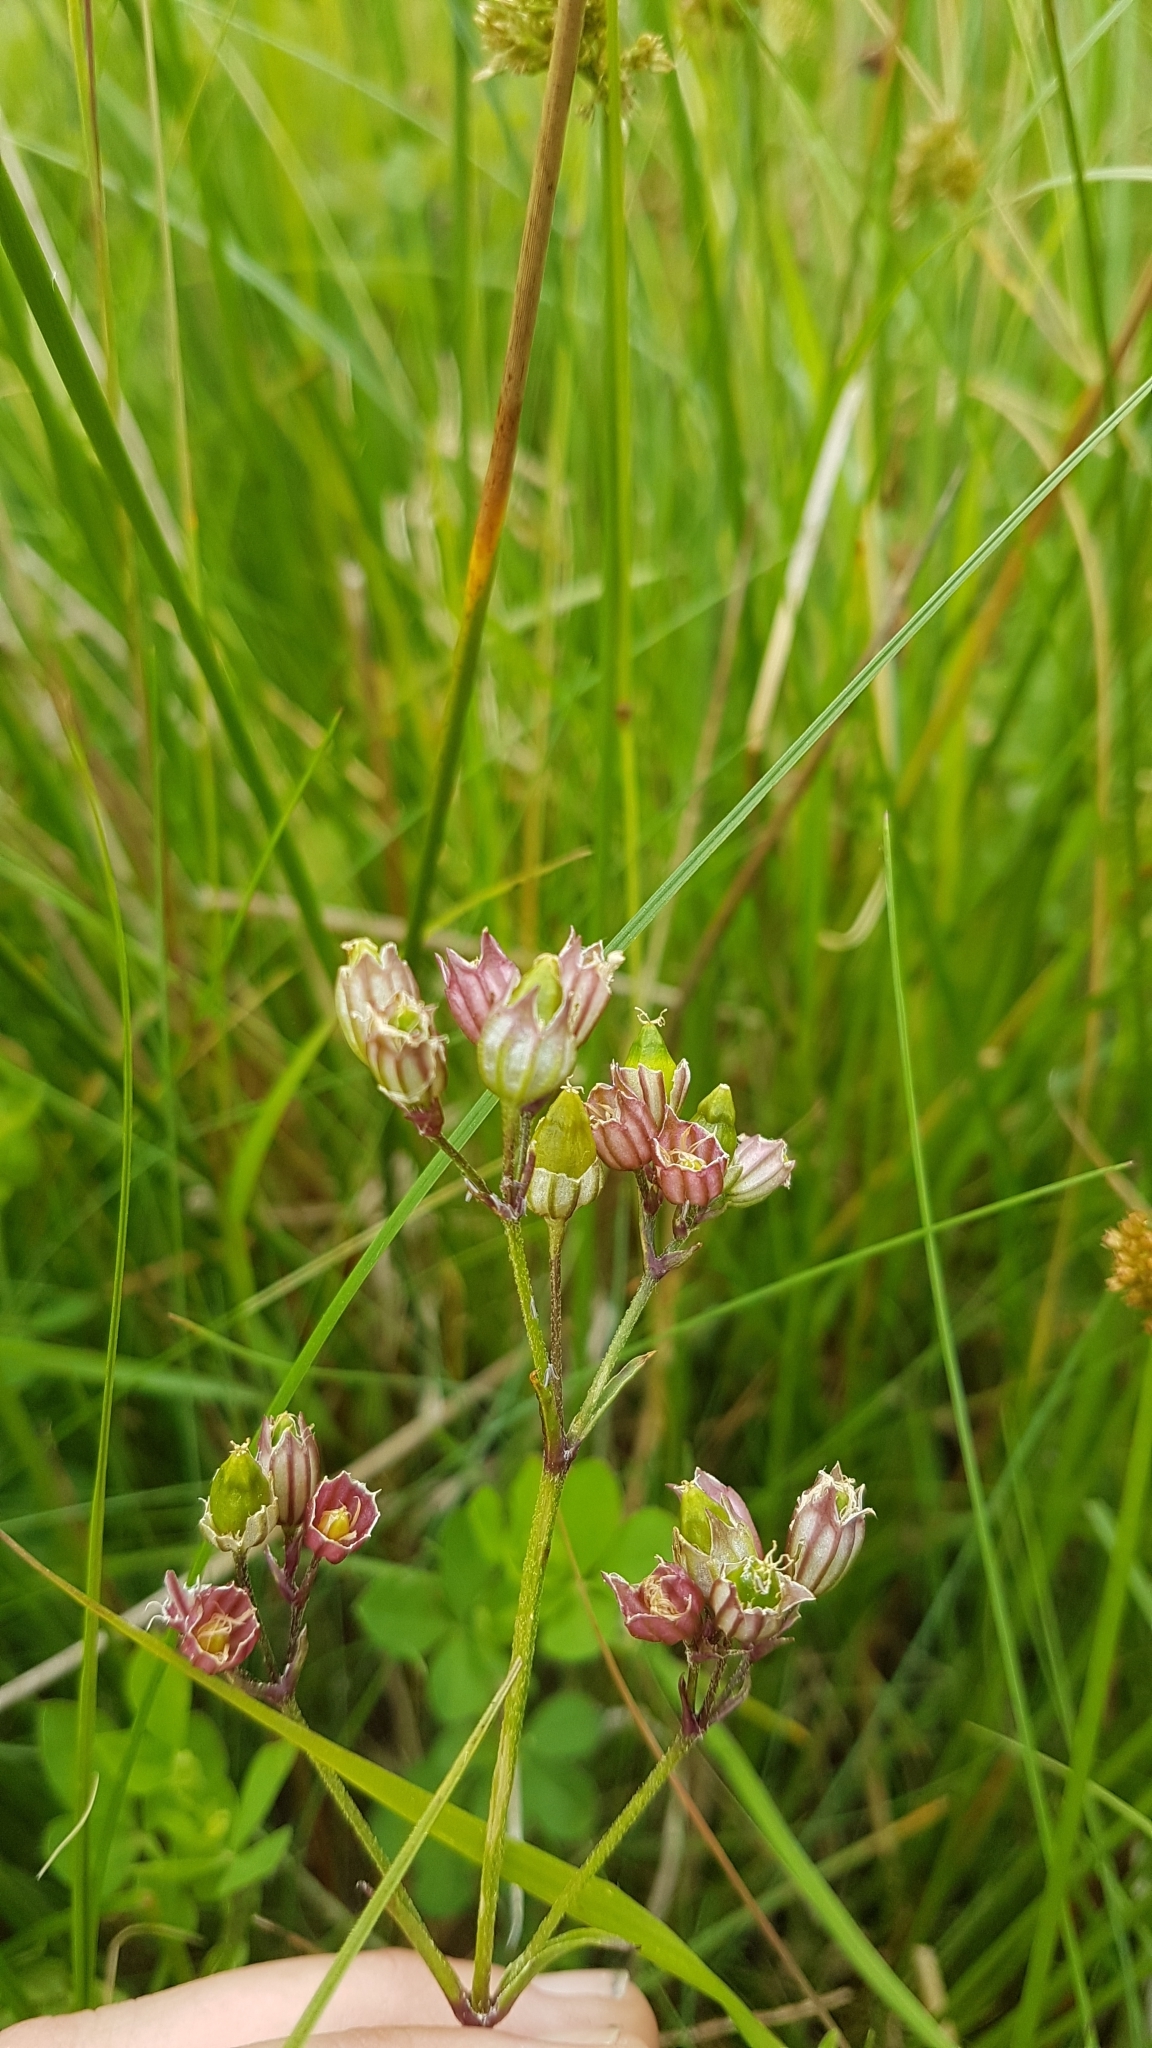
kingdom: Plantae
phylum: Tracheophyta
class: Magnoliopsida
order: Caryophyllales
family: Caryophyllaceae
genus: Silene
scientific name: Silene flos-cuculi
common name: Ragged-robin
